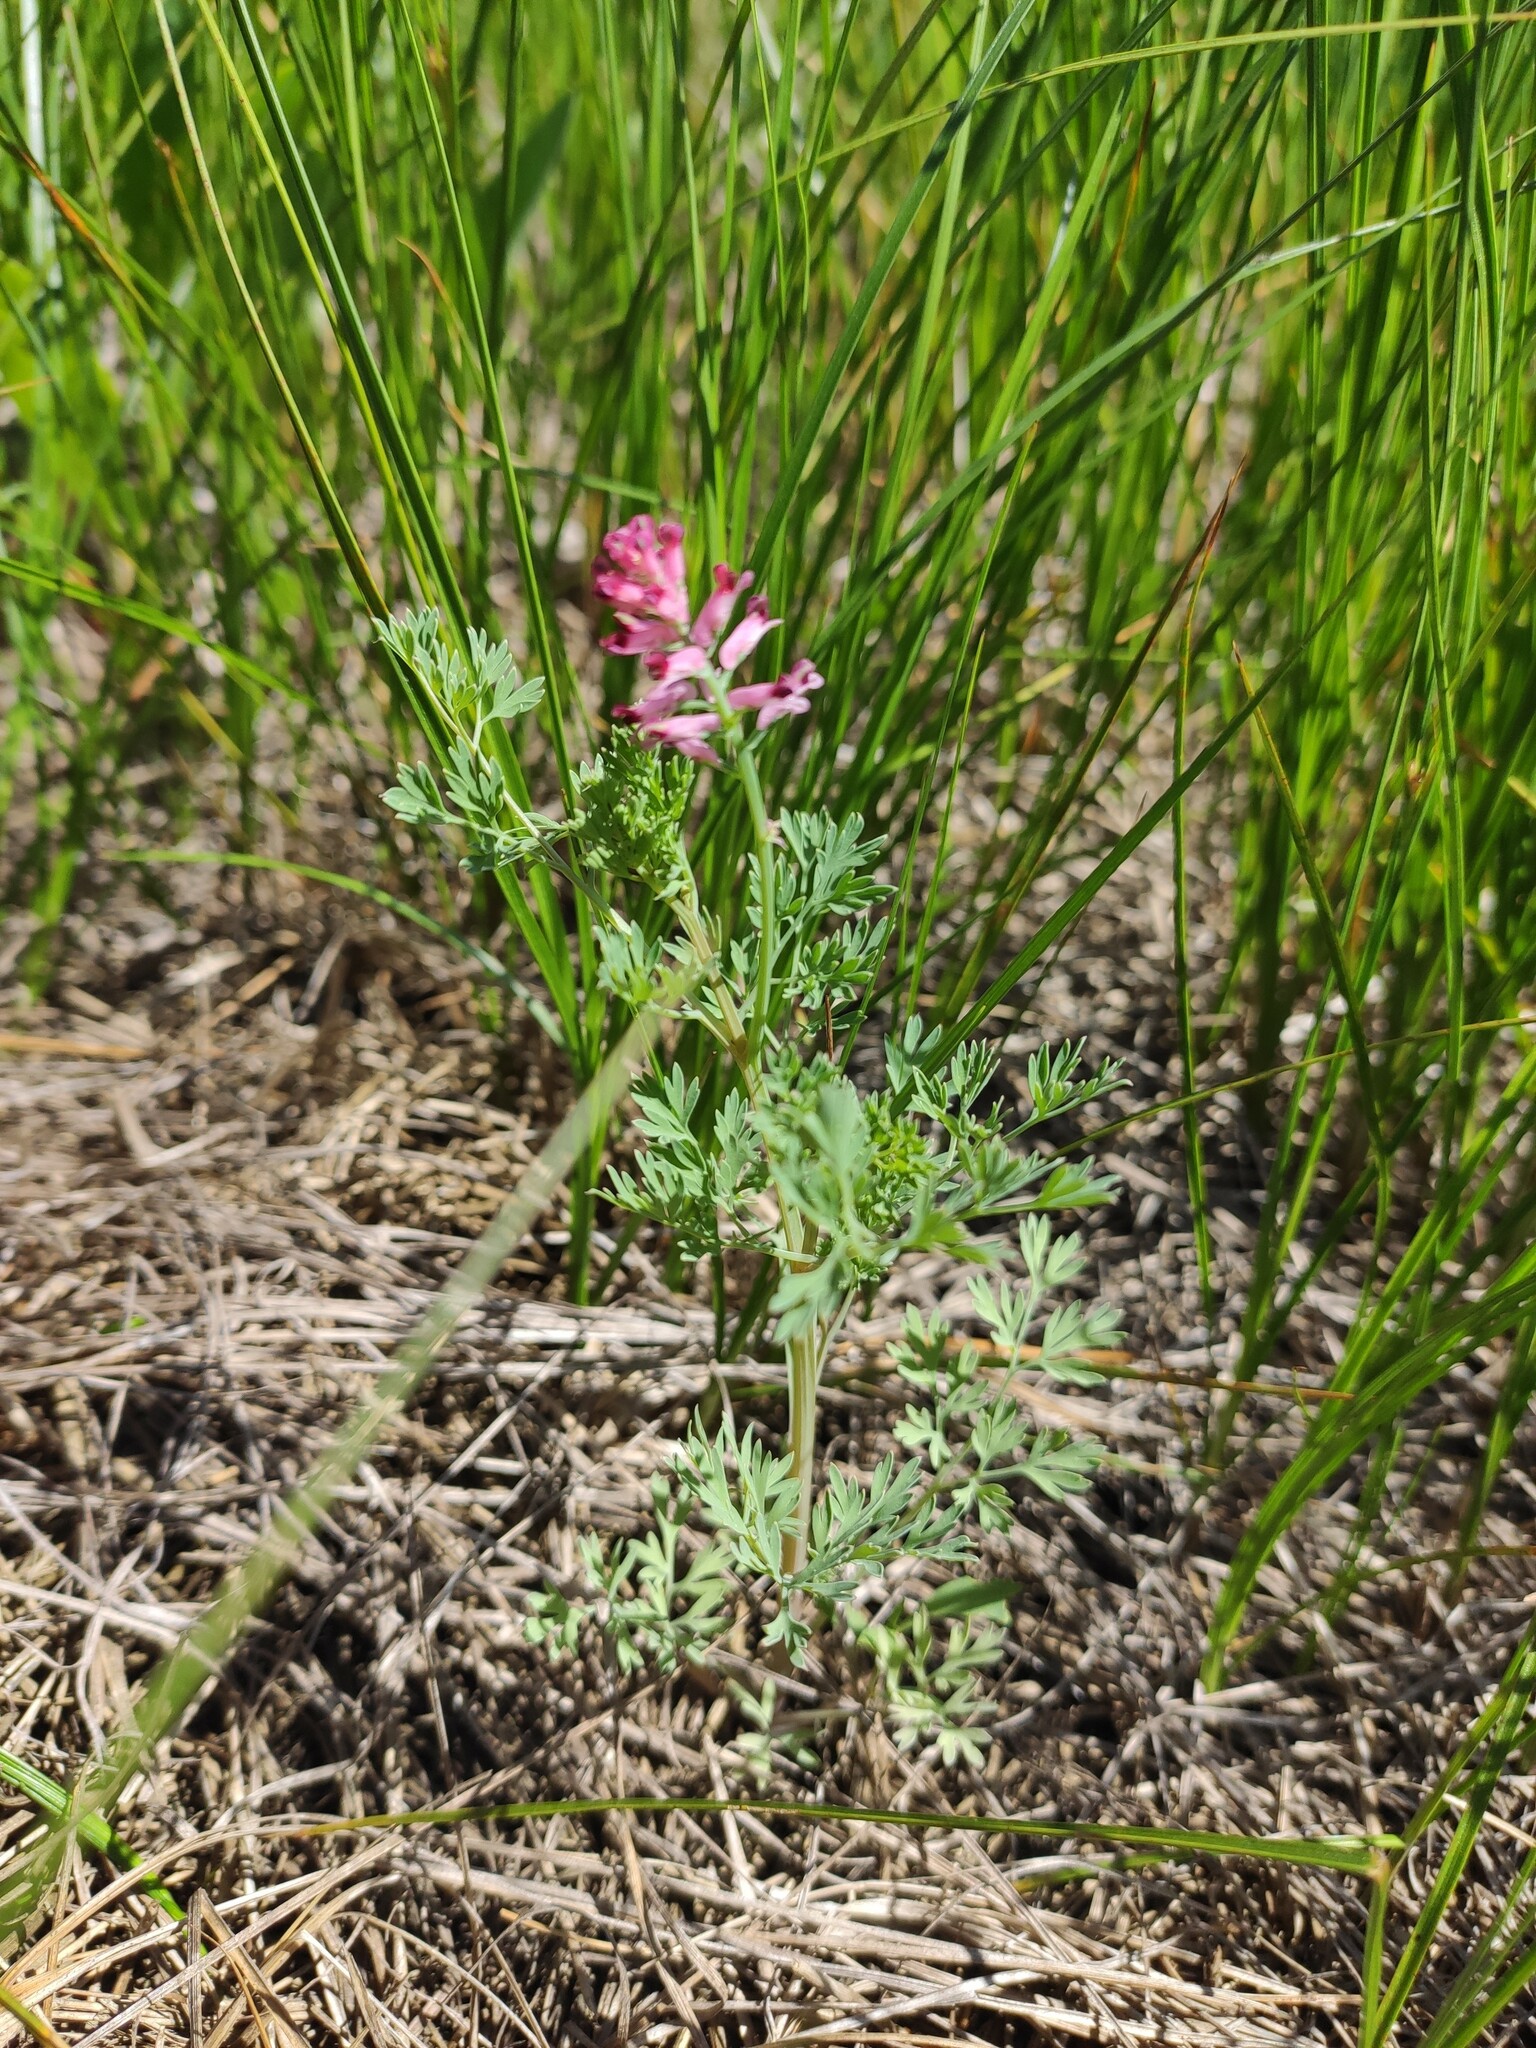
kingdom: Plantae
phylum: Tracheophyta
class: Magnoliopsida
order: Ranunculales
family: Papaveraceae
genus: Fumaria
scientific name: Fumaria schleicheri
